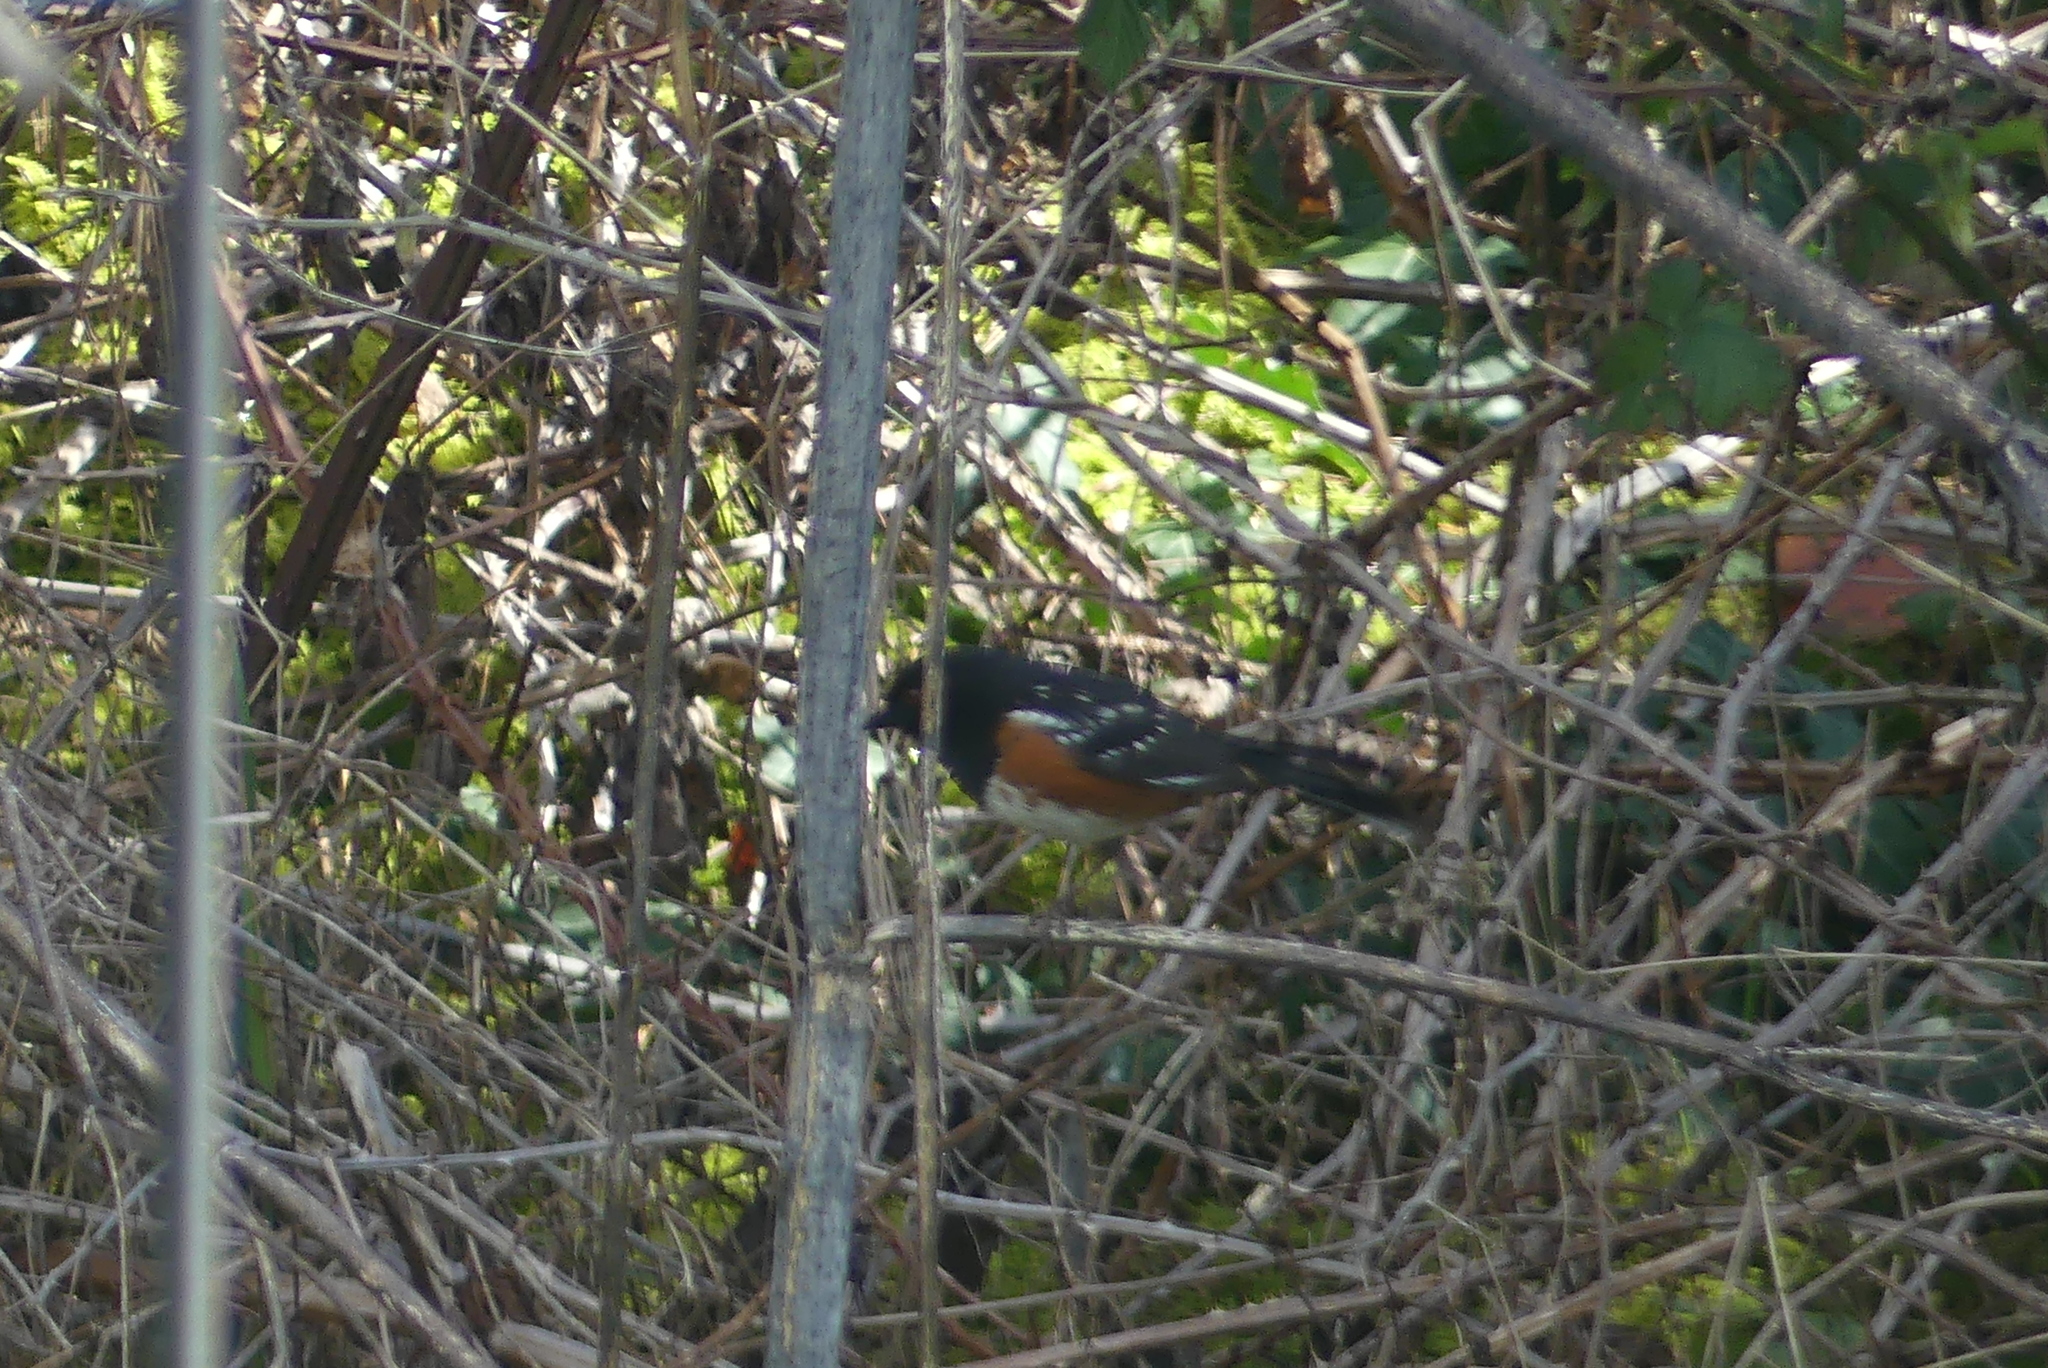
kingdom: Animalia
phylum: Chordata
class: Aves
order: Passeriformes
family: Passerellidae
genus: Pipilo
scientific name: Pipilo maculatus
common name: Spotted towhee
